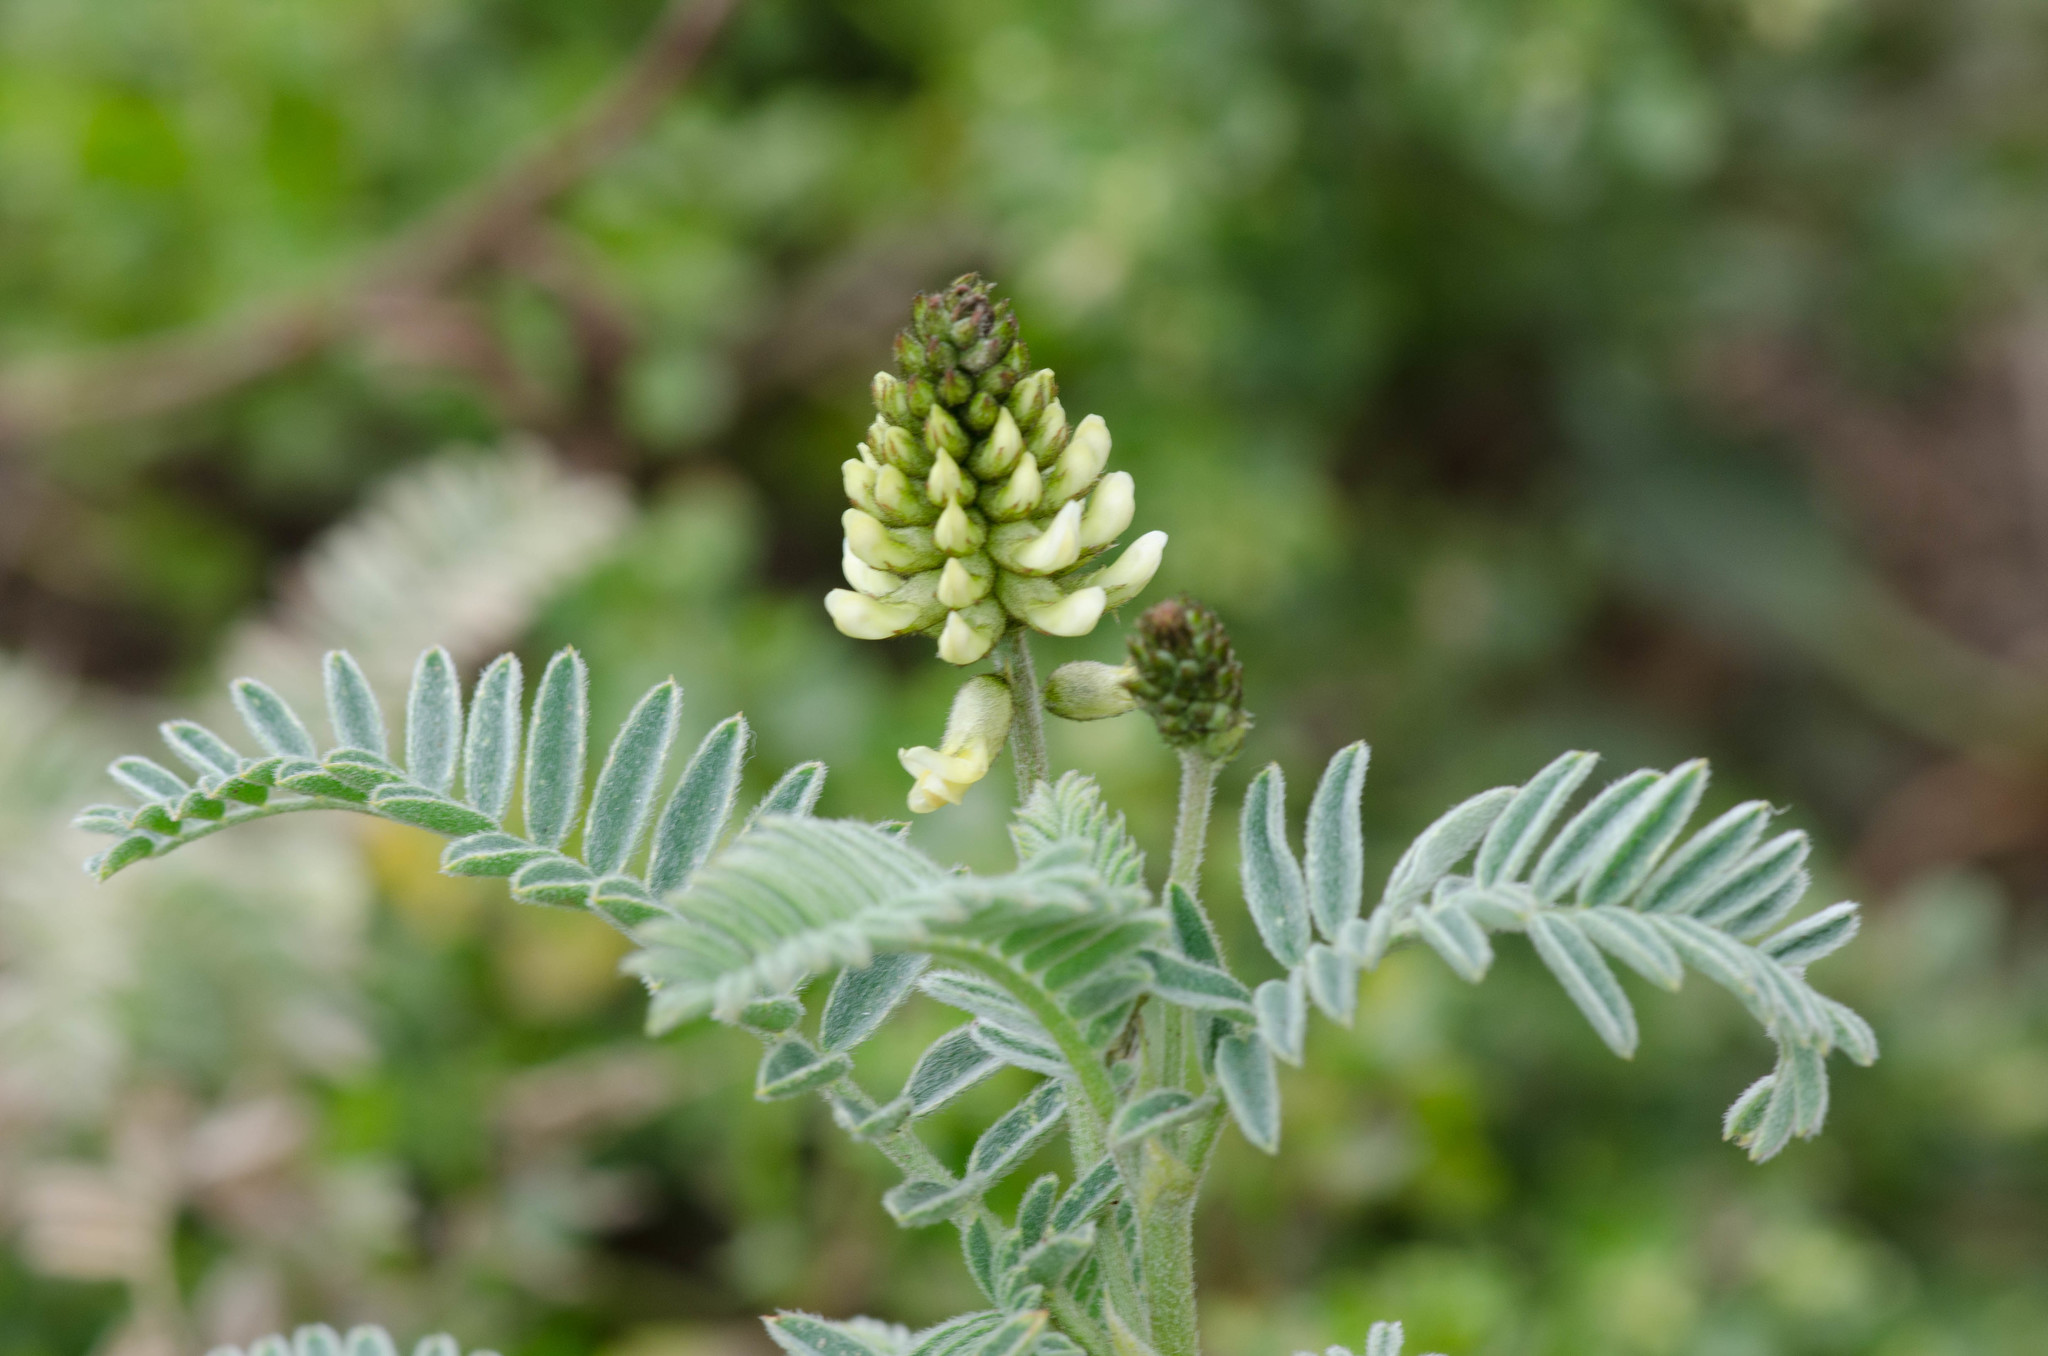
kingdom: Plantae
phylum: Tracheophyta
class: Magnoliopsida
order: Fabales
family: Fabaceae
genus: Astragalus
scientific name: Astragalus pycnostachyus
